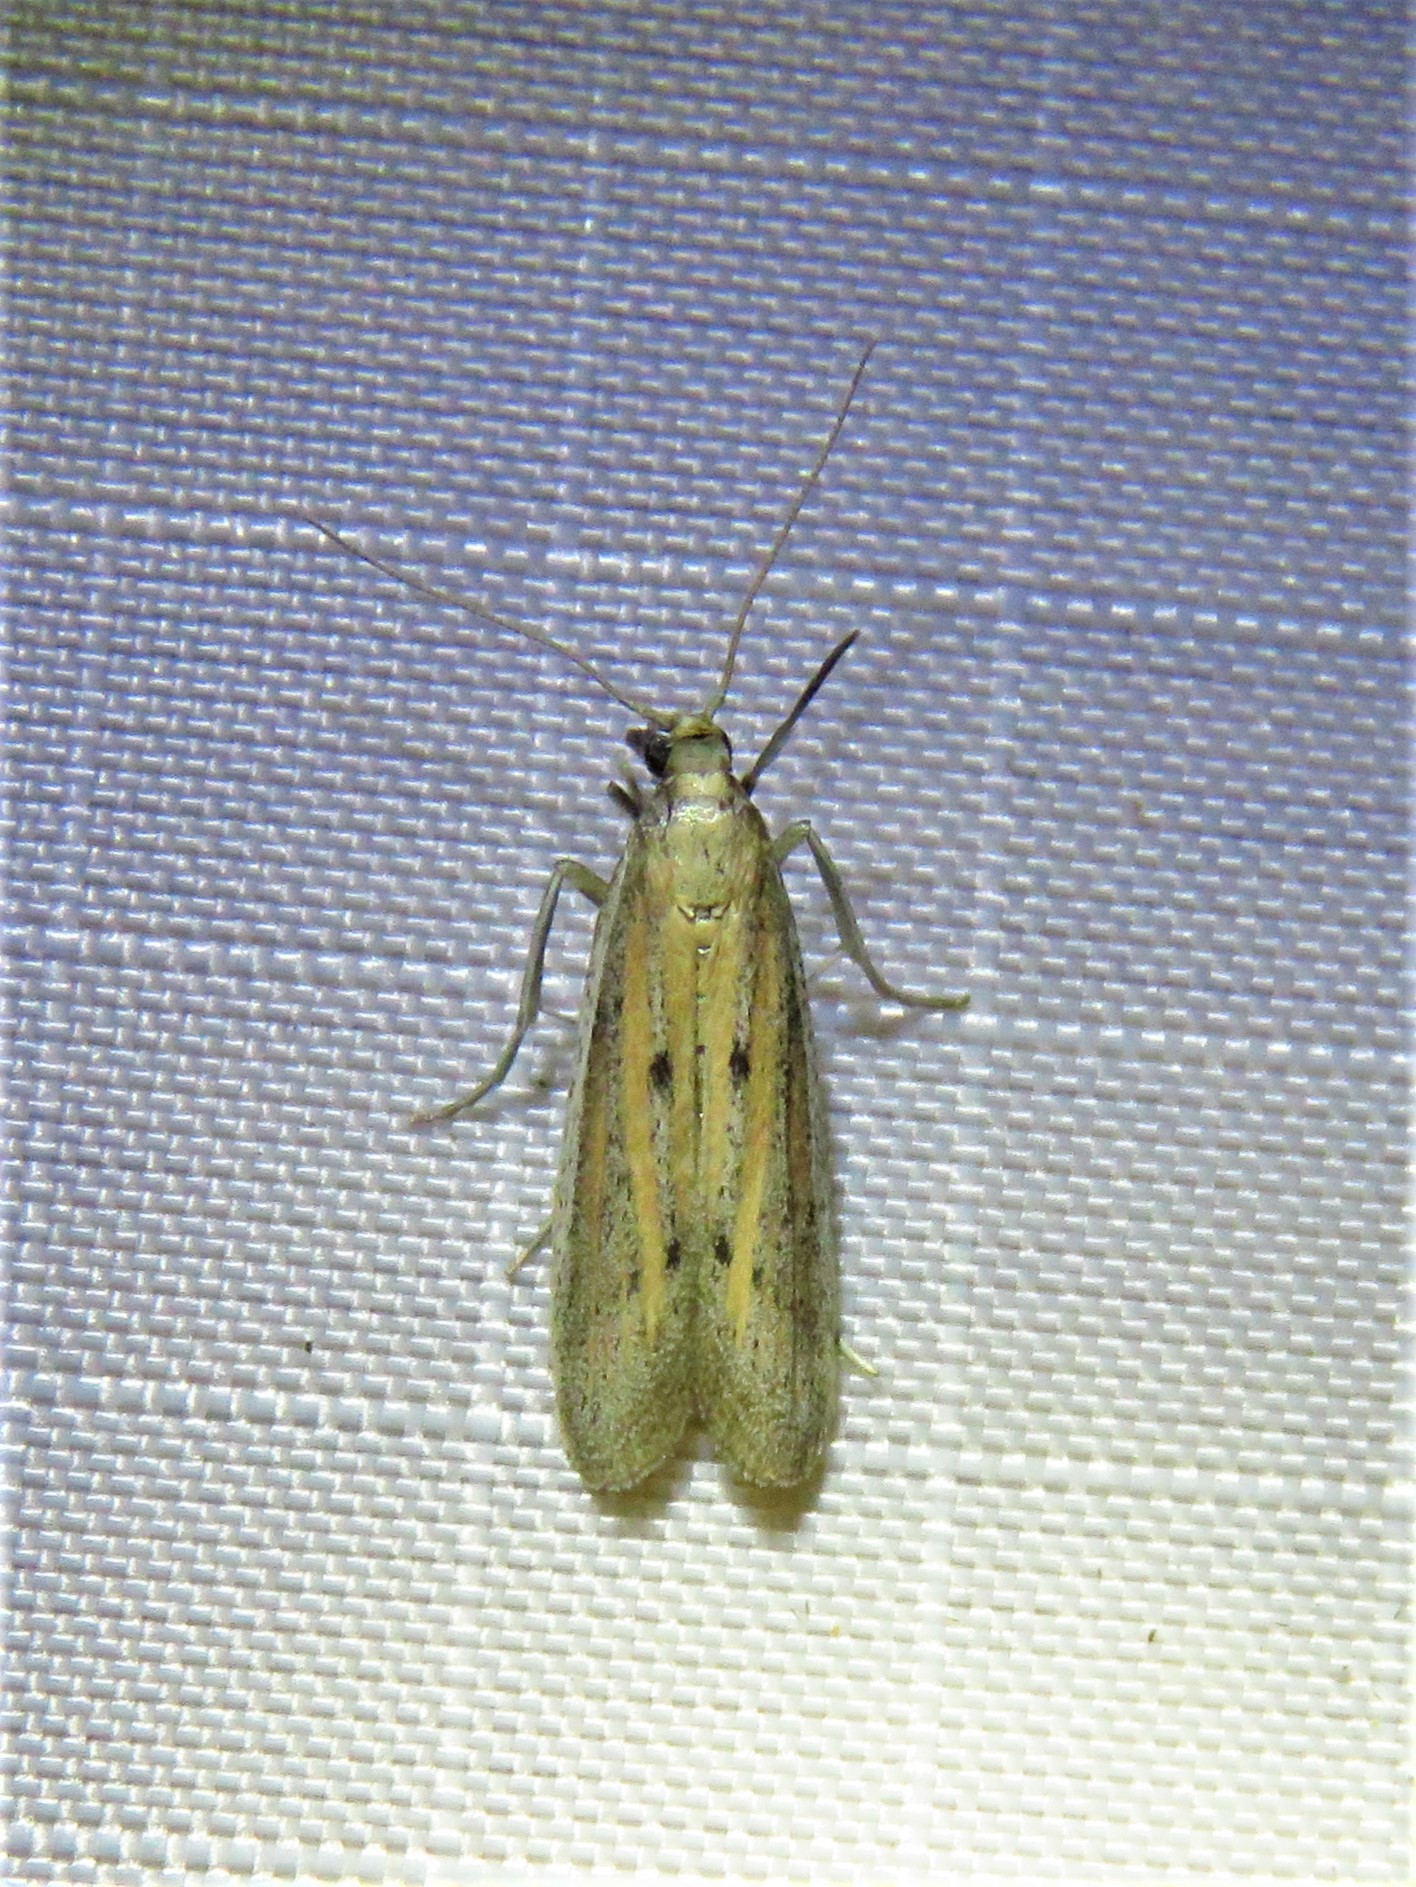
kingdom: Animalia
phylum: Arthropoda
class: Insecta
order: Lepidoptera
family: Pyralidae
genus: Bandera
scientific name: Bandera binotella
